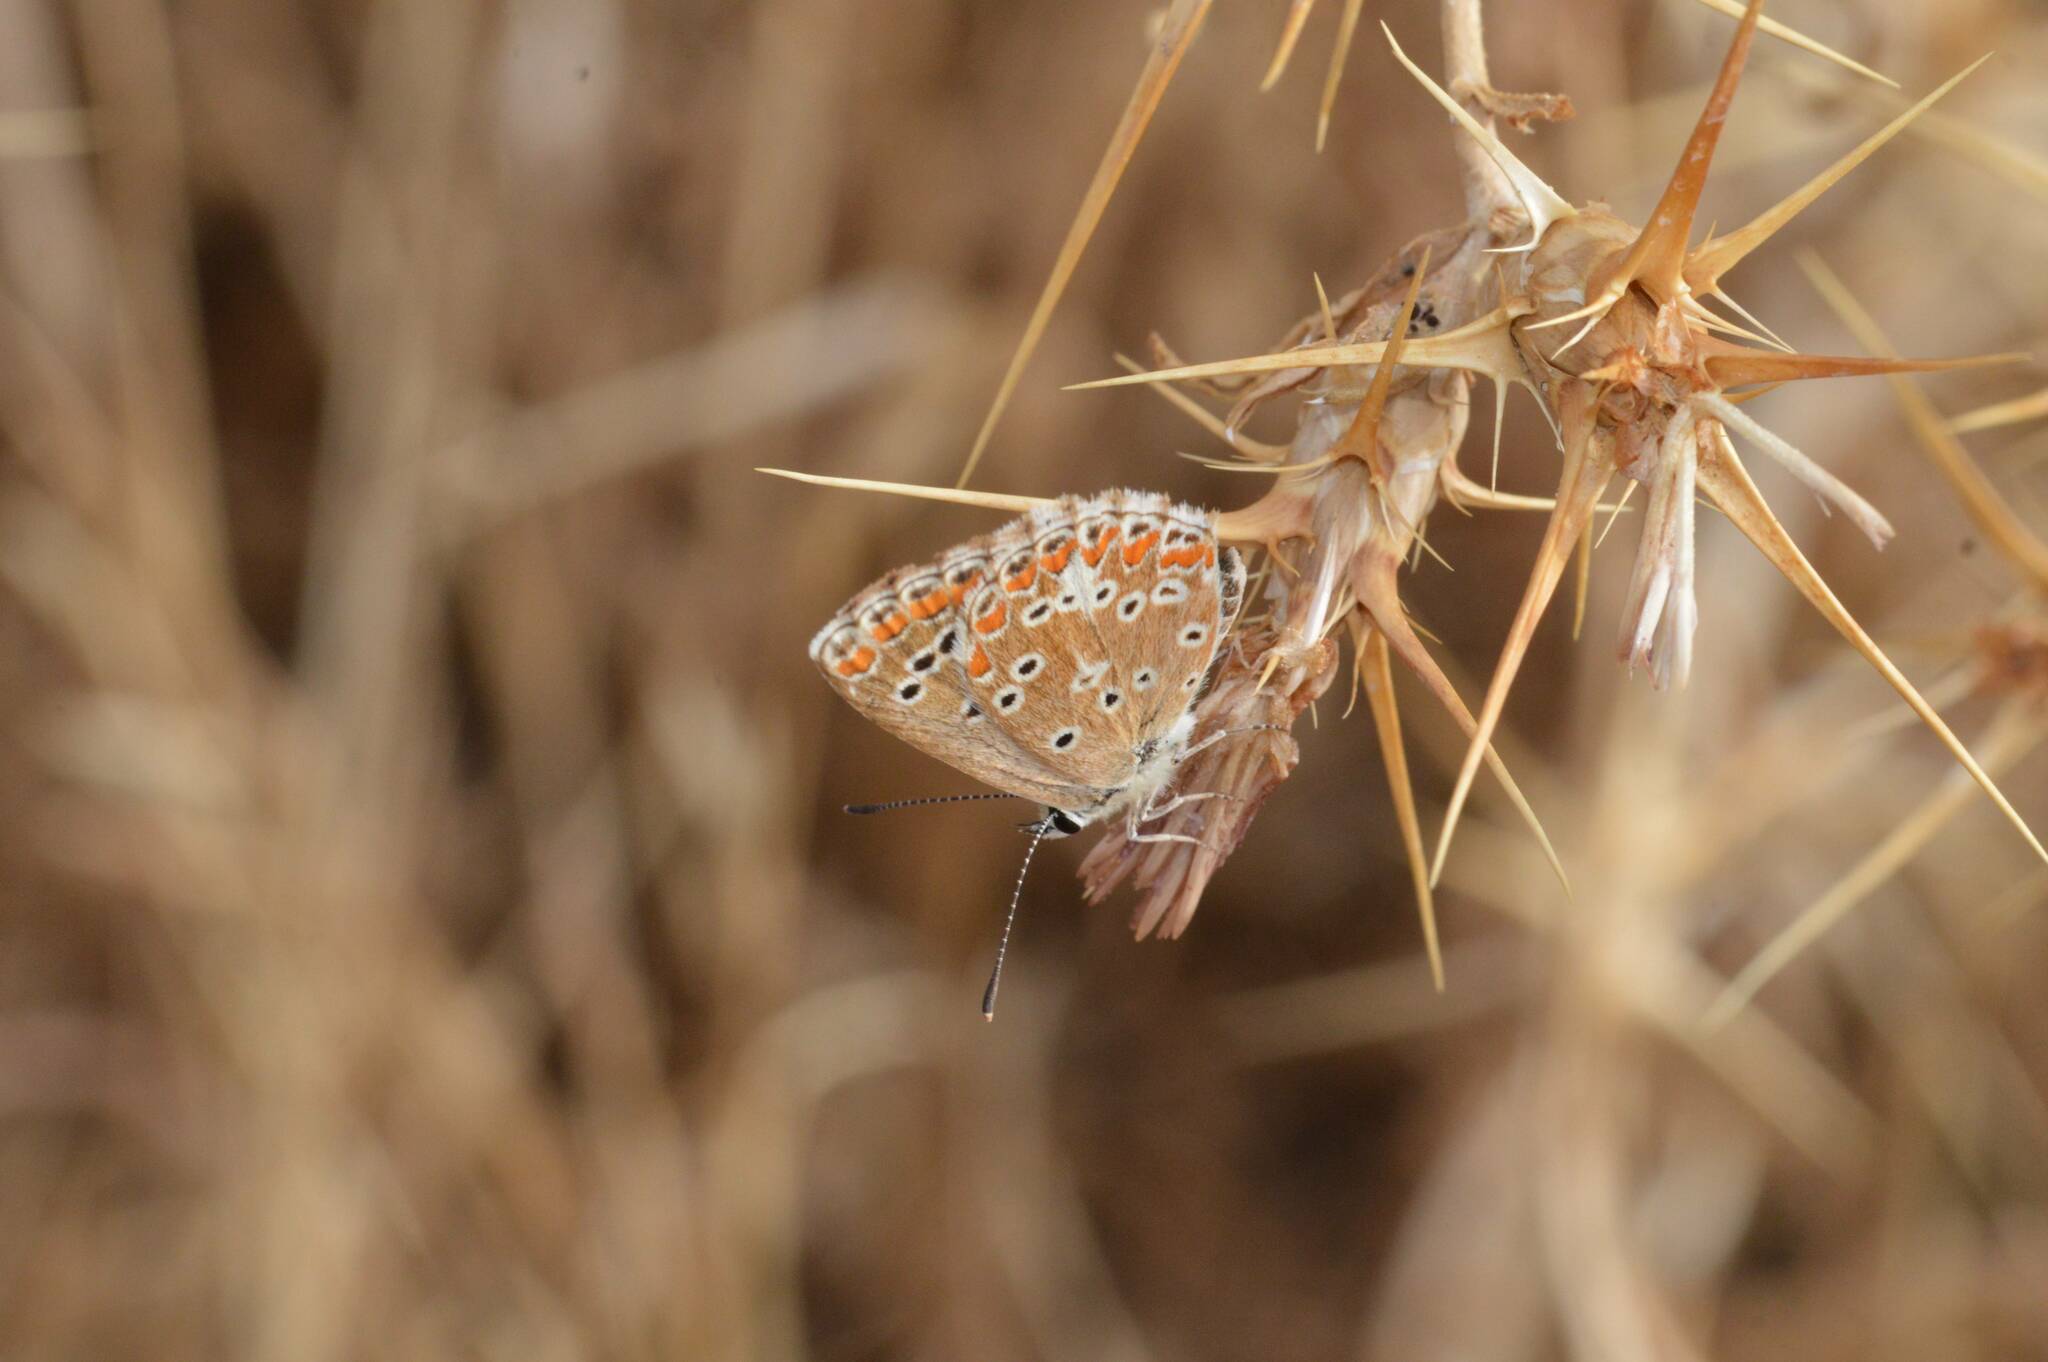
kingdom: Animalia
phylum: Arthropoda
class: Insecta
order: Lepidoptera
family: Lycaenidae
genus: Aricia
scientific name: Aricia cramera
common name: Eschscholtz´s brown  argus
